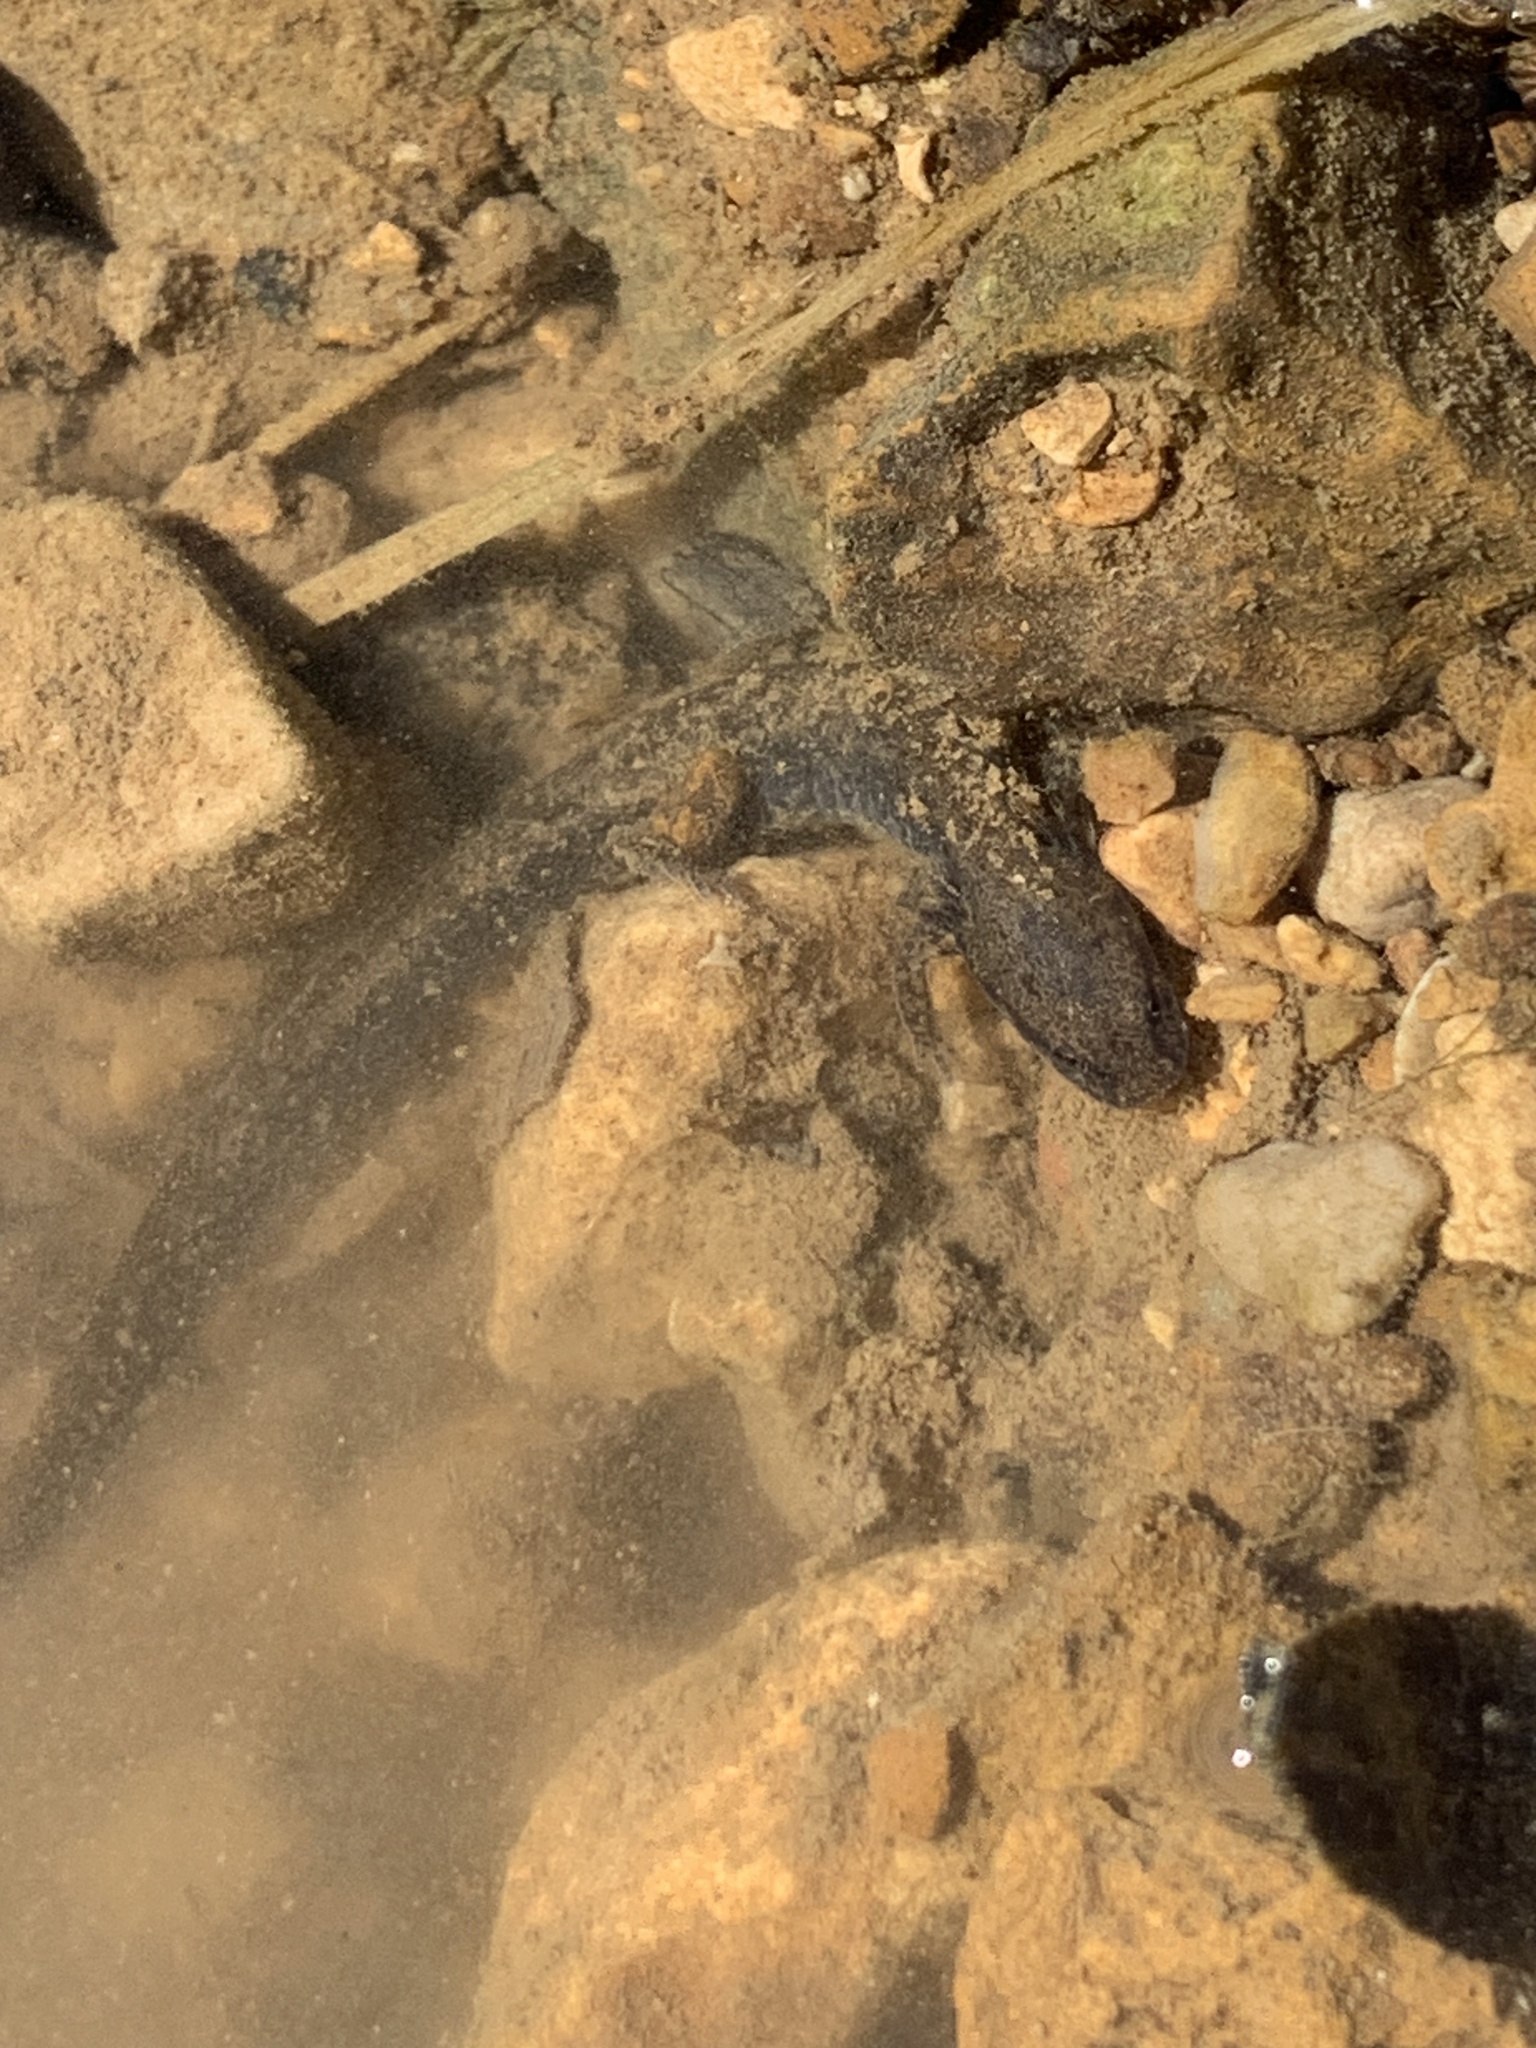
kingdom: Animalia
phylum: Chordata
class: Amphibia
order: Caudata
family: Plethodontidae
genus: Eurycea
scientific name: Eurycea cirrigera
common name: Southern two-lined salamander
